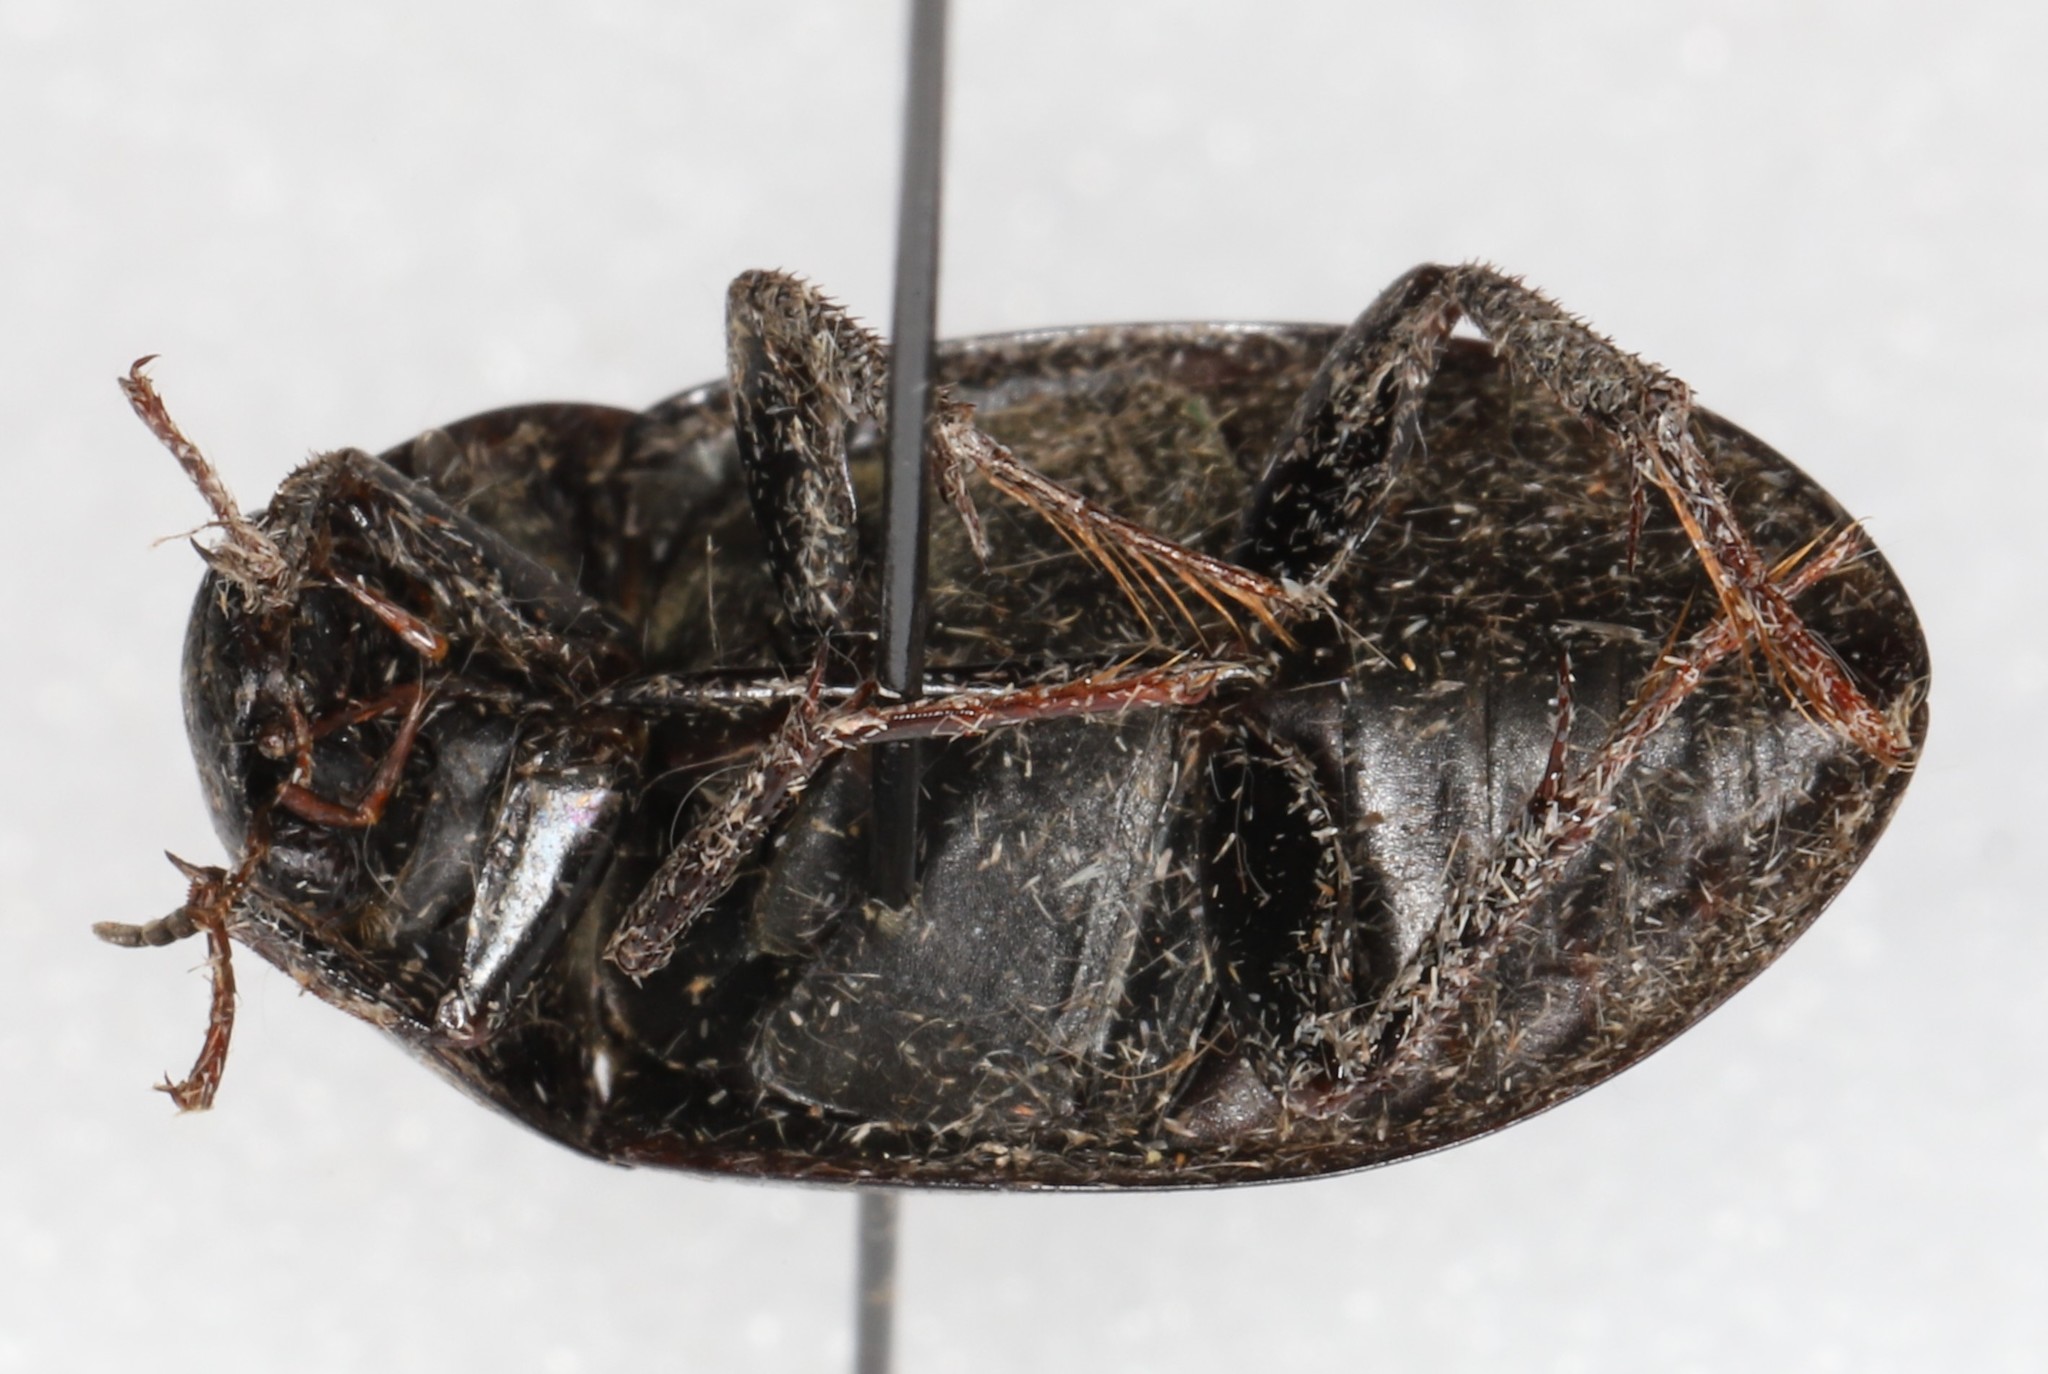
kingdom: Animalia
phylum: Arthropoda
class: Insecta
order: Coleoptera
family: Hydrophilidae
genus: Hydrochara
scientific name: Hydrochara
